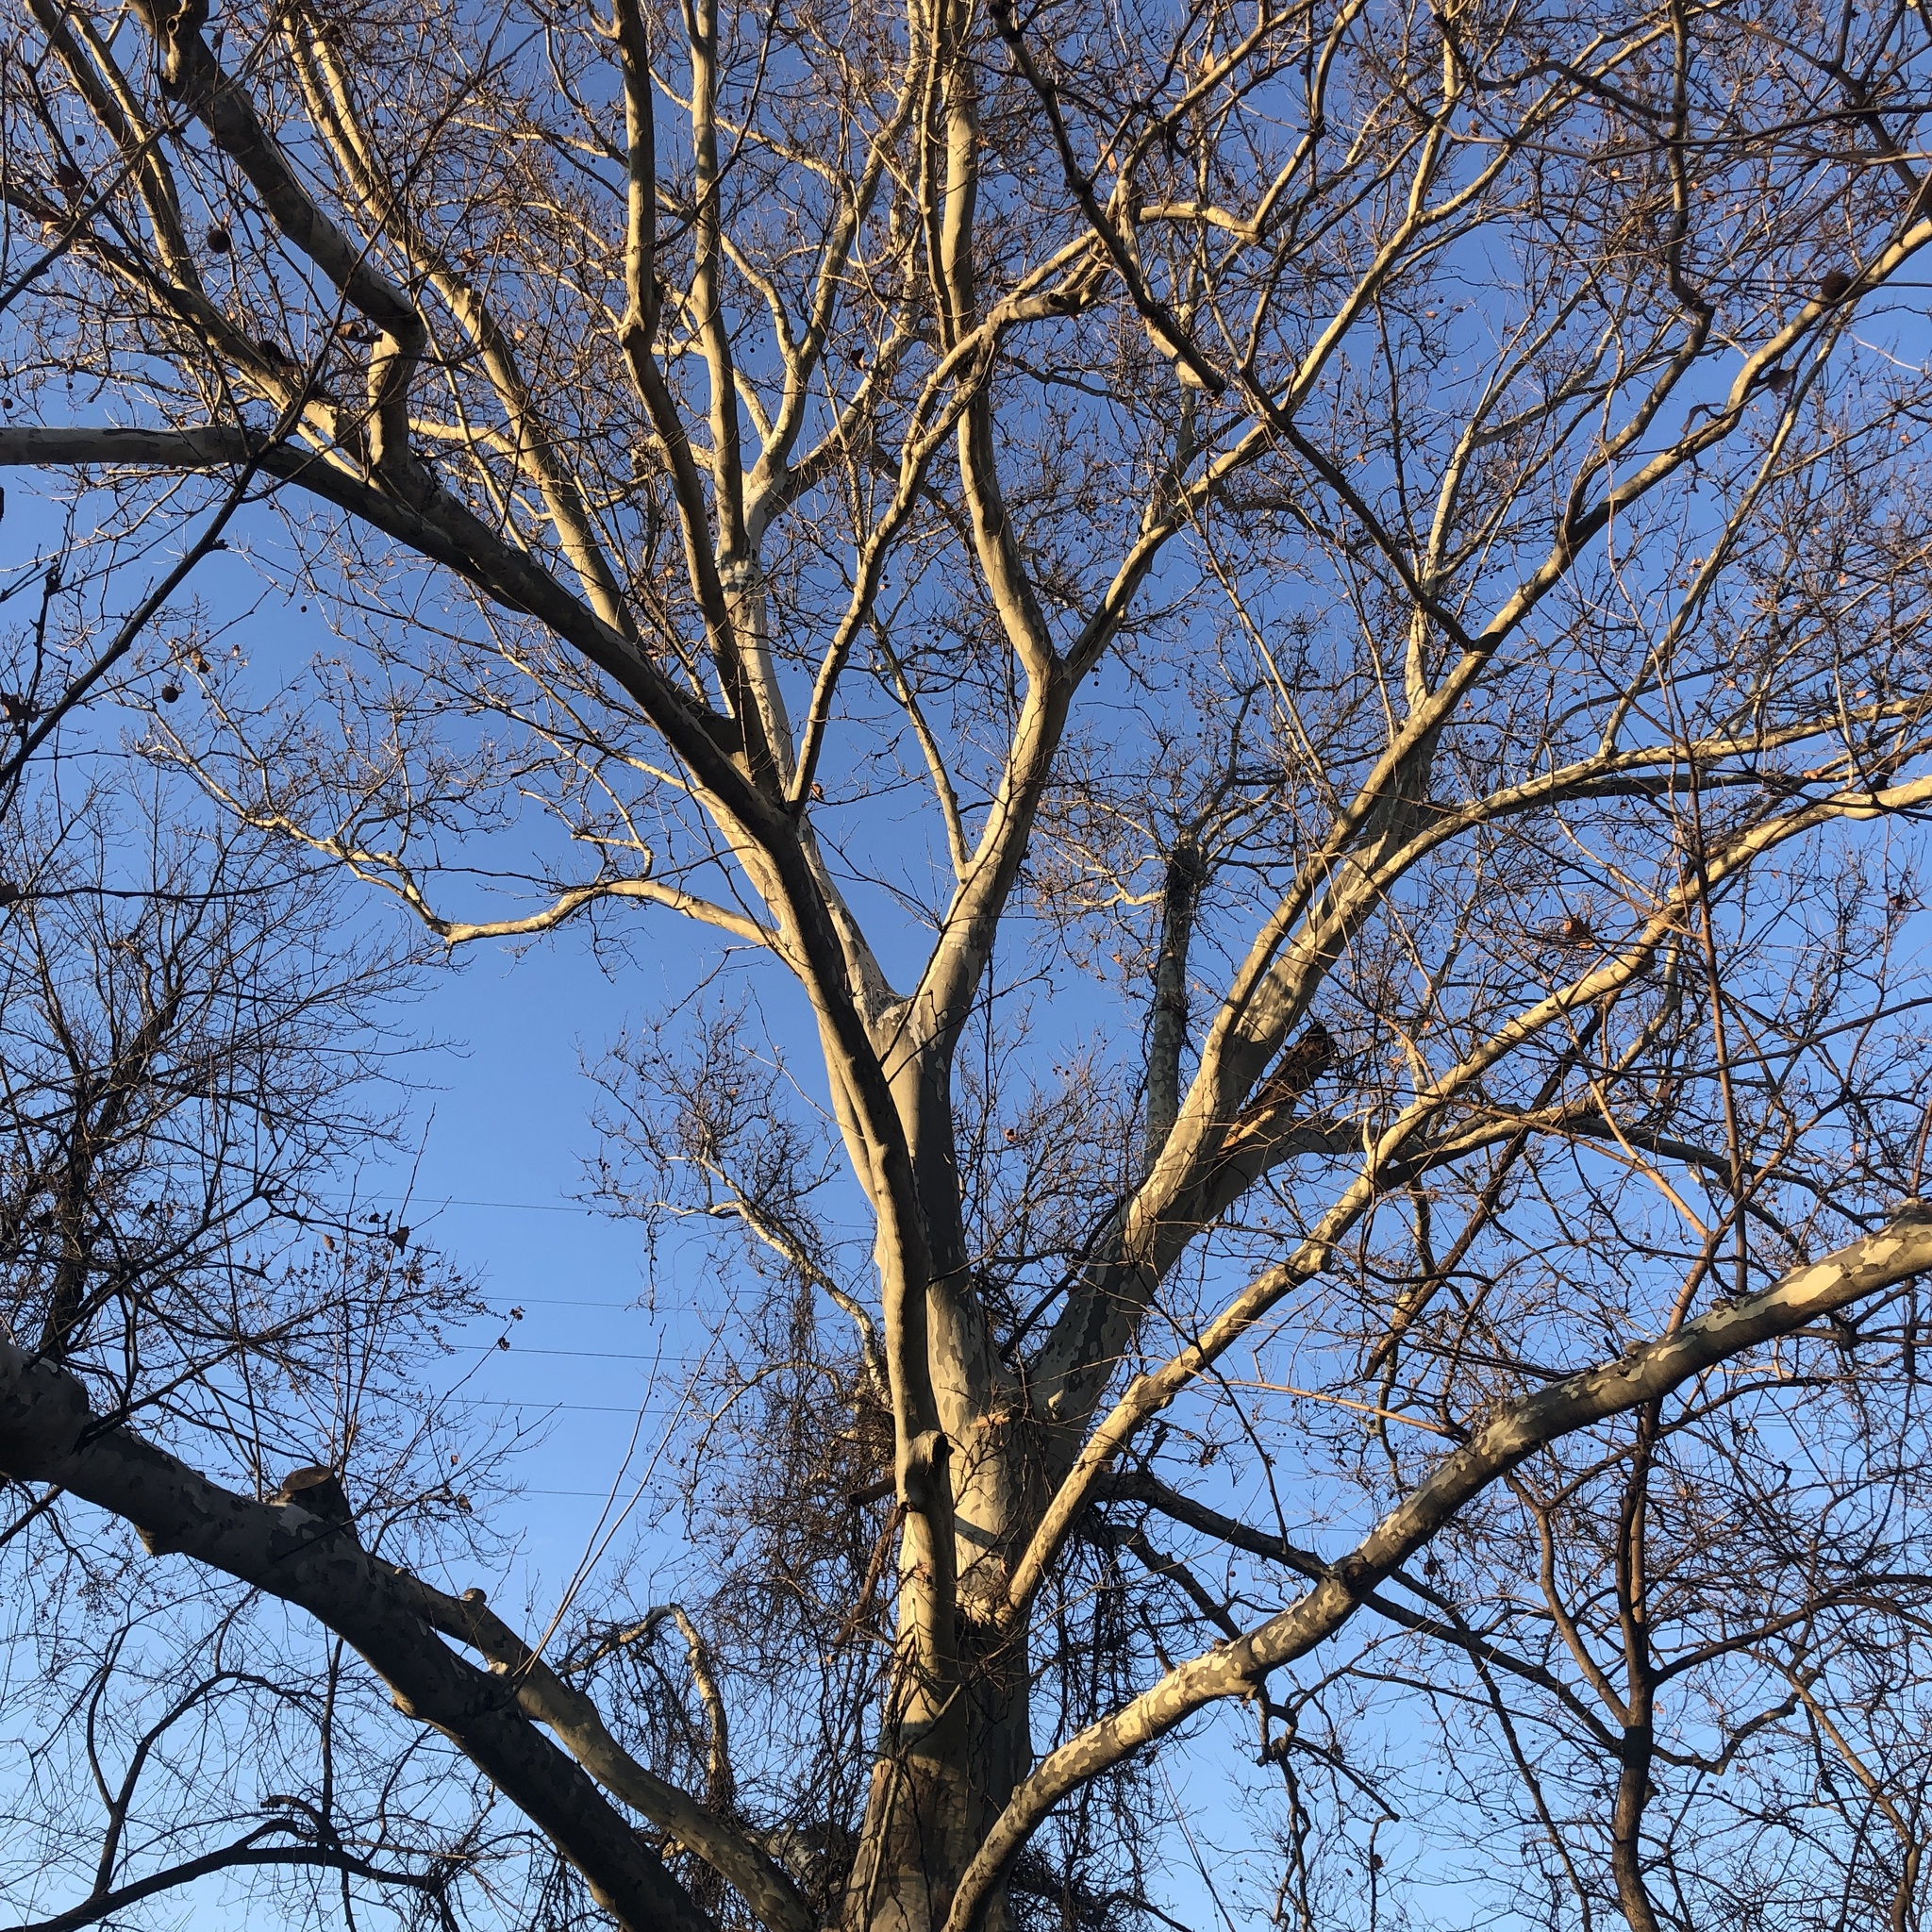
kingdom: Plantae
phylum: Tracheophyta
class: Magnoliopsida
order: Proteales
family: Platanaceae
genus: Platanus
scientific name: Platanus occidentalis
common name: American sycamore
